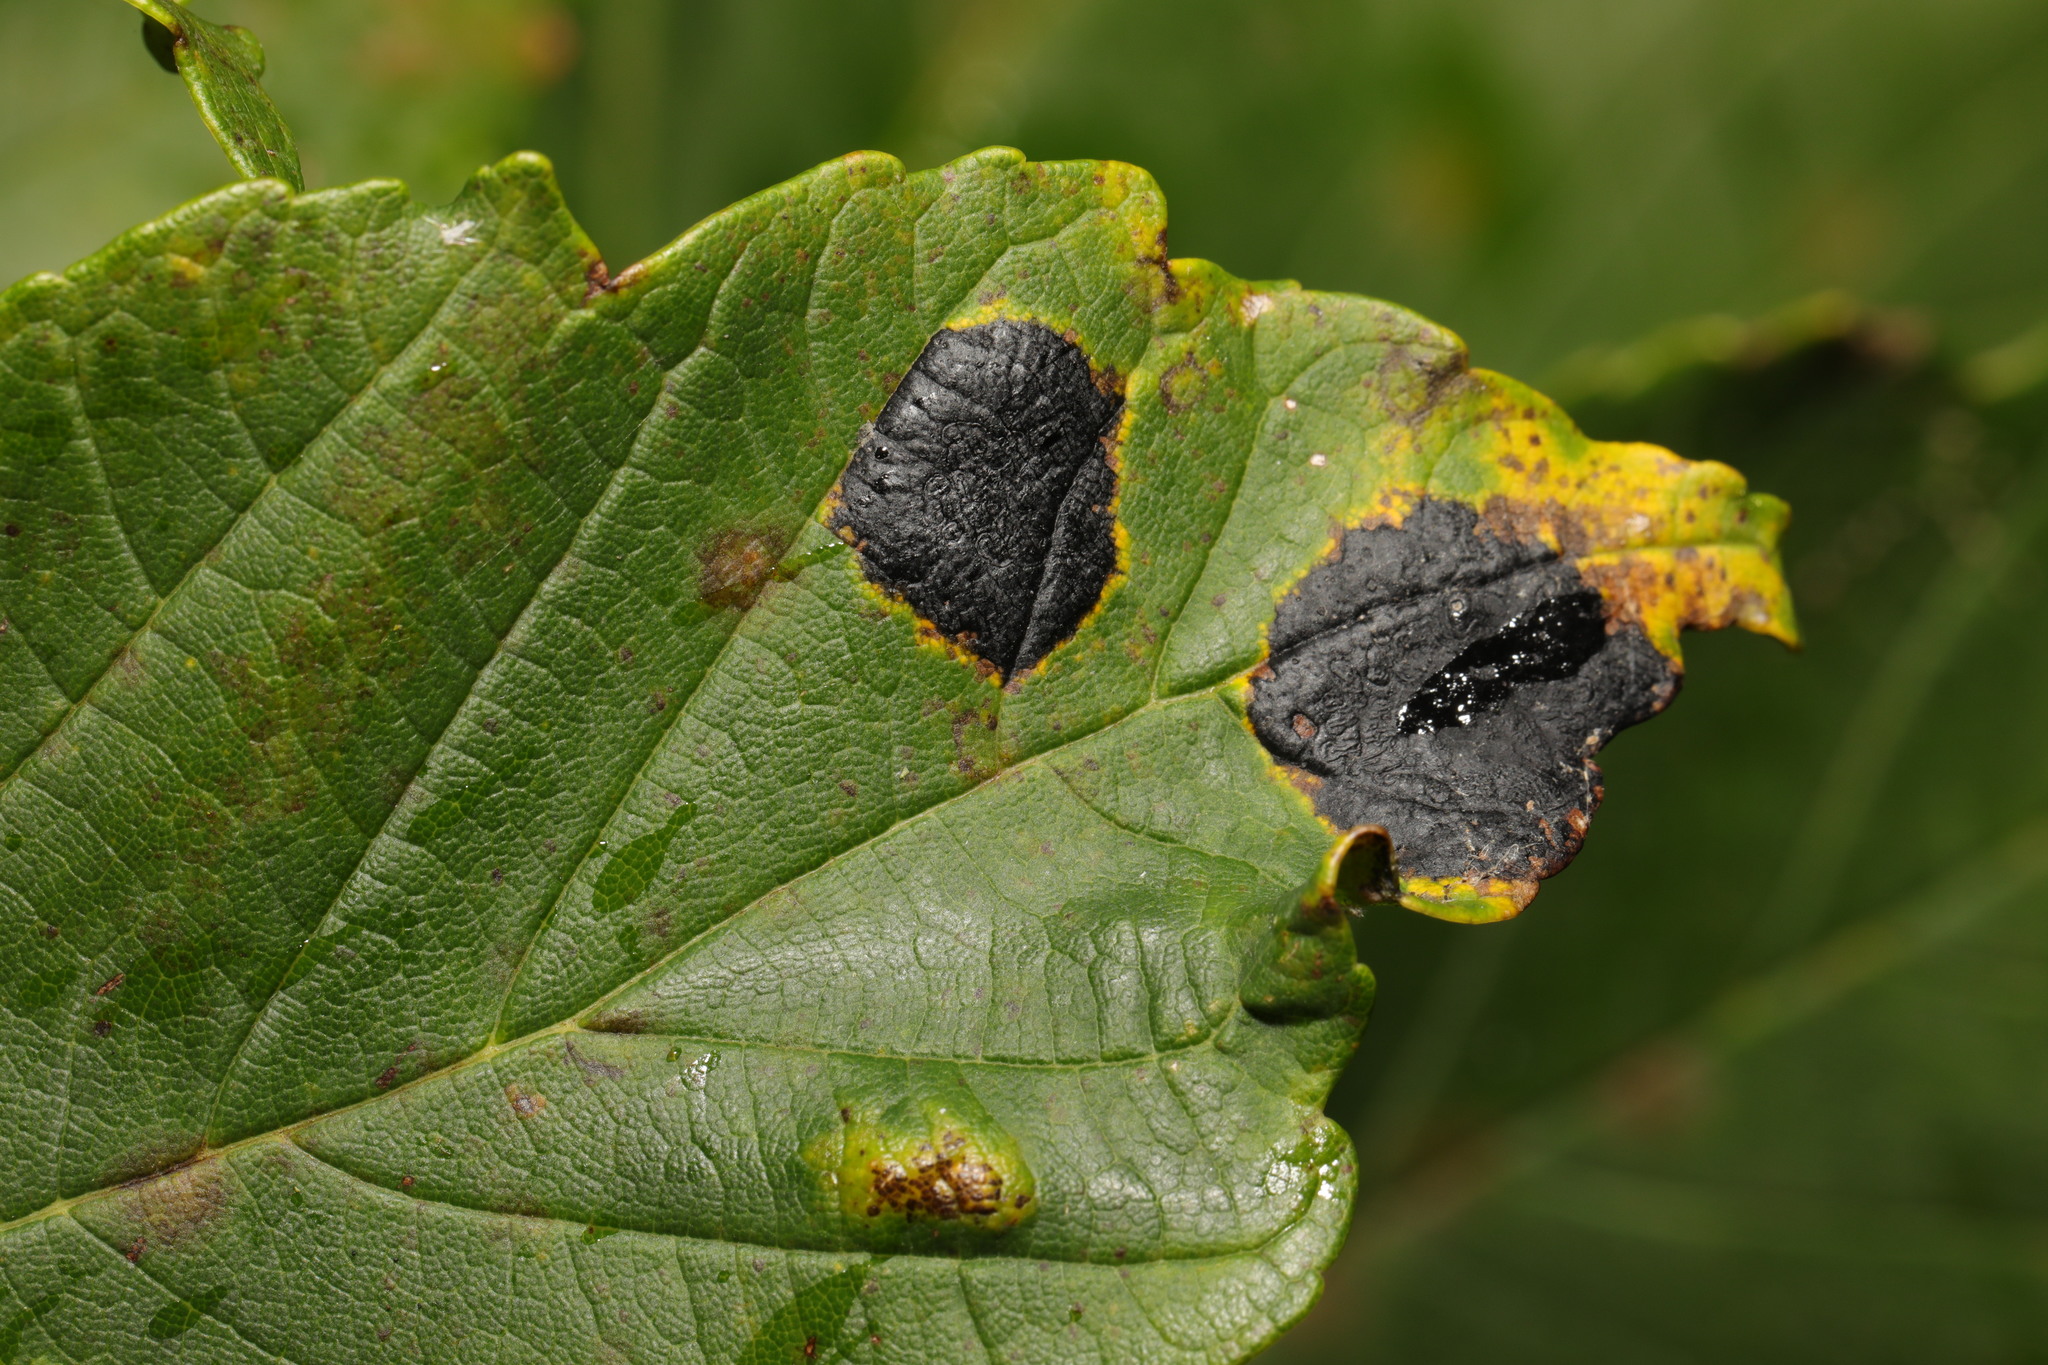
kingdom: Fungi
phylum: Ascomycota
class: Leotiomycetes
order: Rhytismatales
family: Rhytismataceae
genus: Rhytisma
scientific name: Rhytisma acerinum
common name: European tar spot
